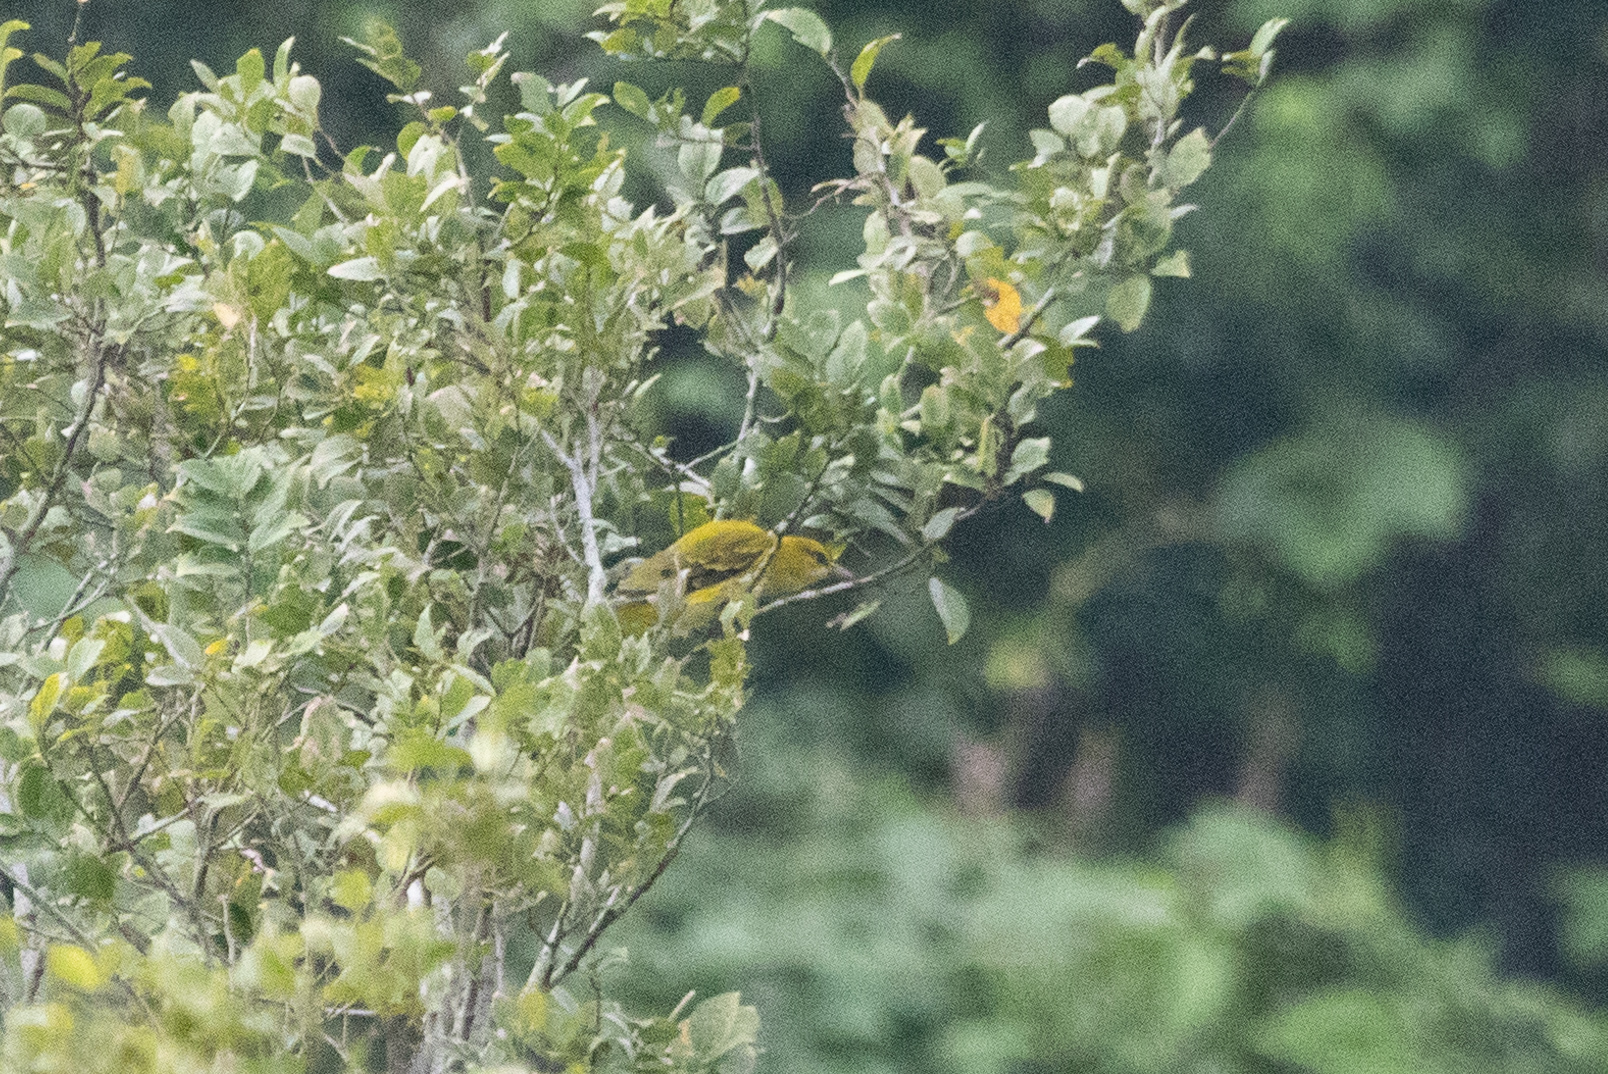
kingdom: Animalia
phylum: Chordata
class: Aves
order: Passeriformes
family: Oriolidae
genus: Oriolus
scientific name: Oriolus chinensis
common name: Black-naped oriole
